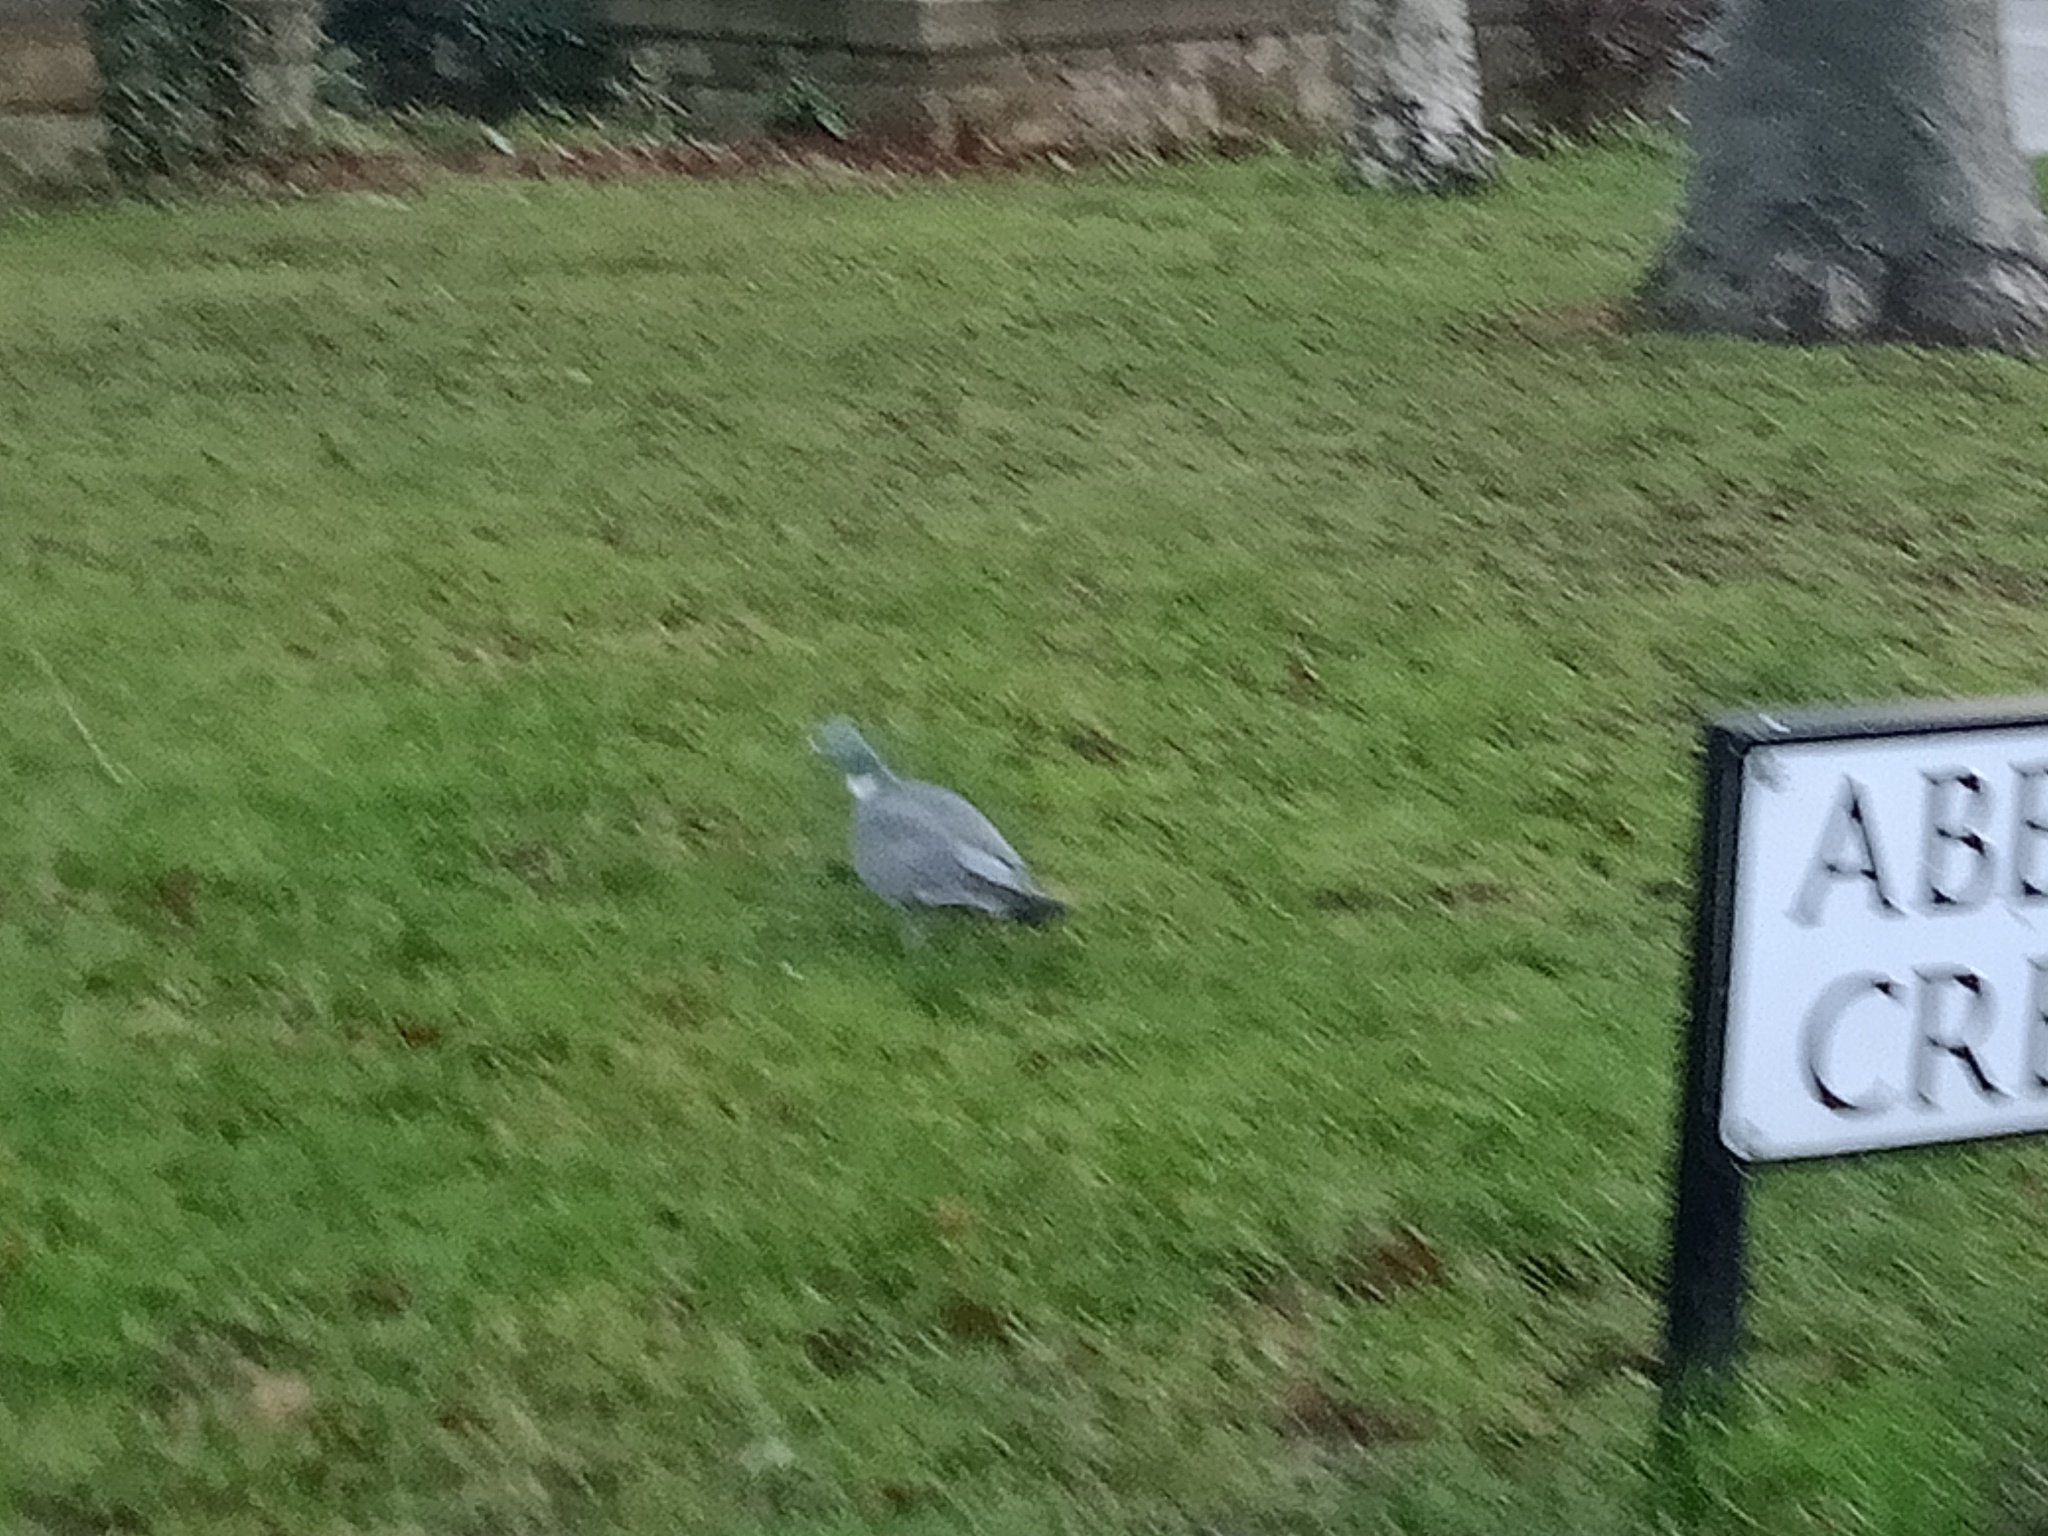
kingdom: Animalia
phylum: Chordata
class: Aves
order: Columbiformes
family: Columbidae
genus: Columba
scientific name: Columba palumbus
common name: Common wood pigeon
